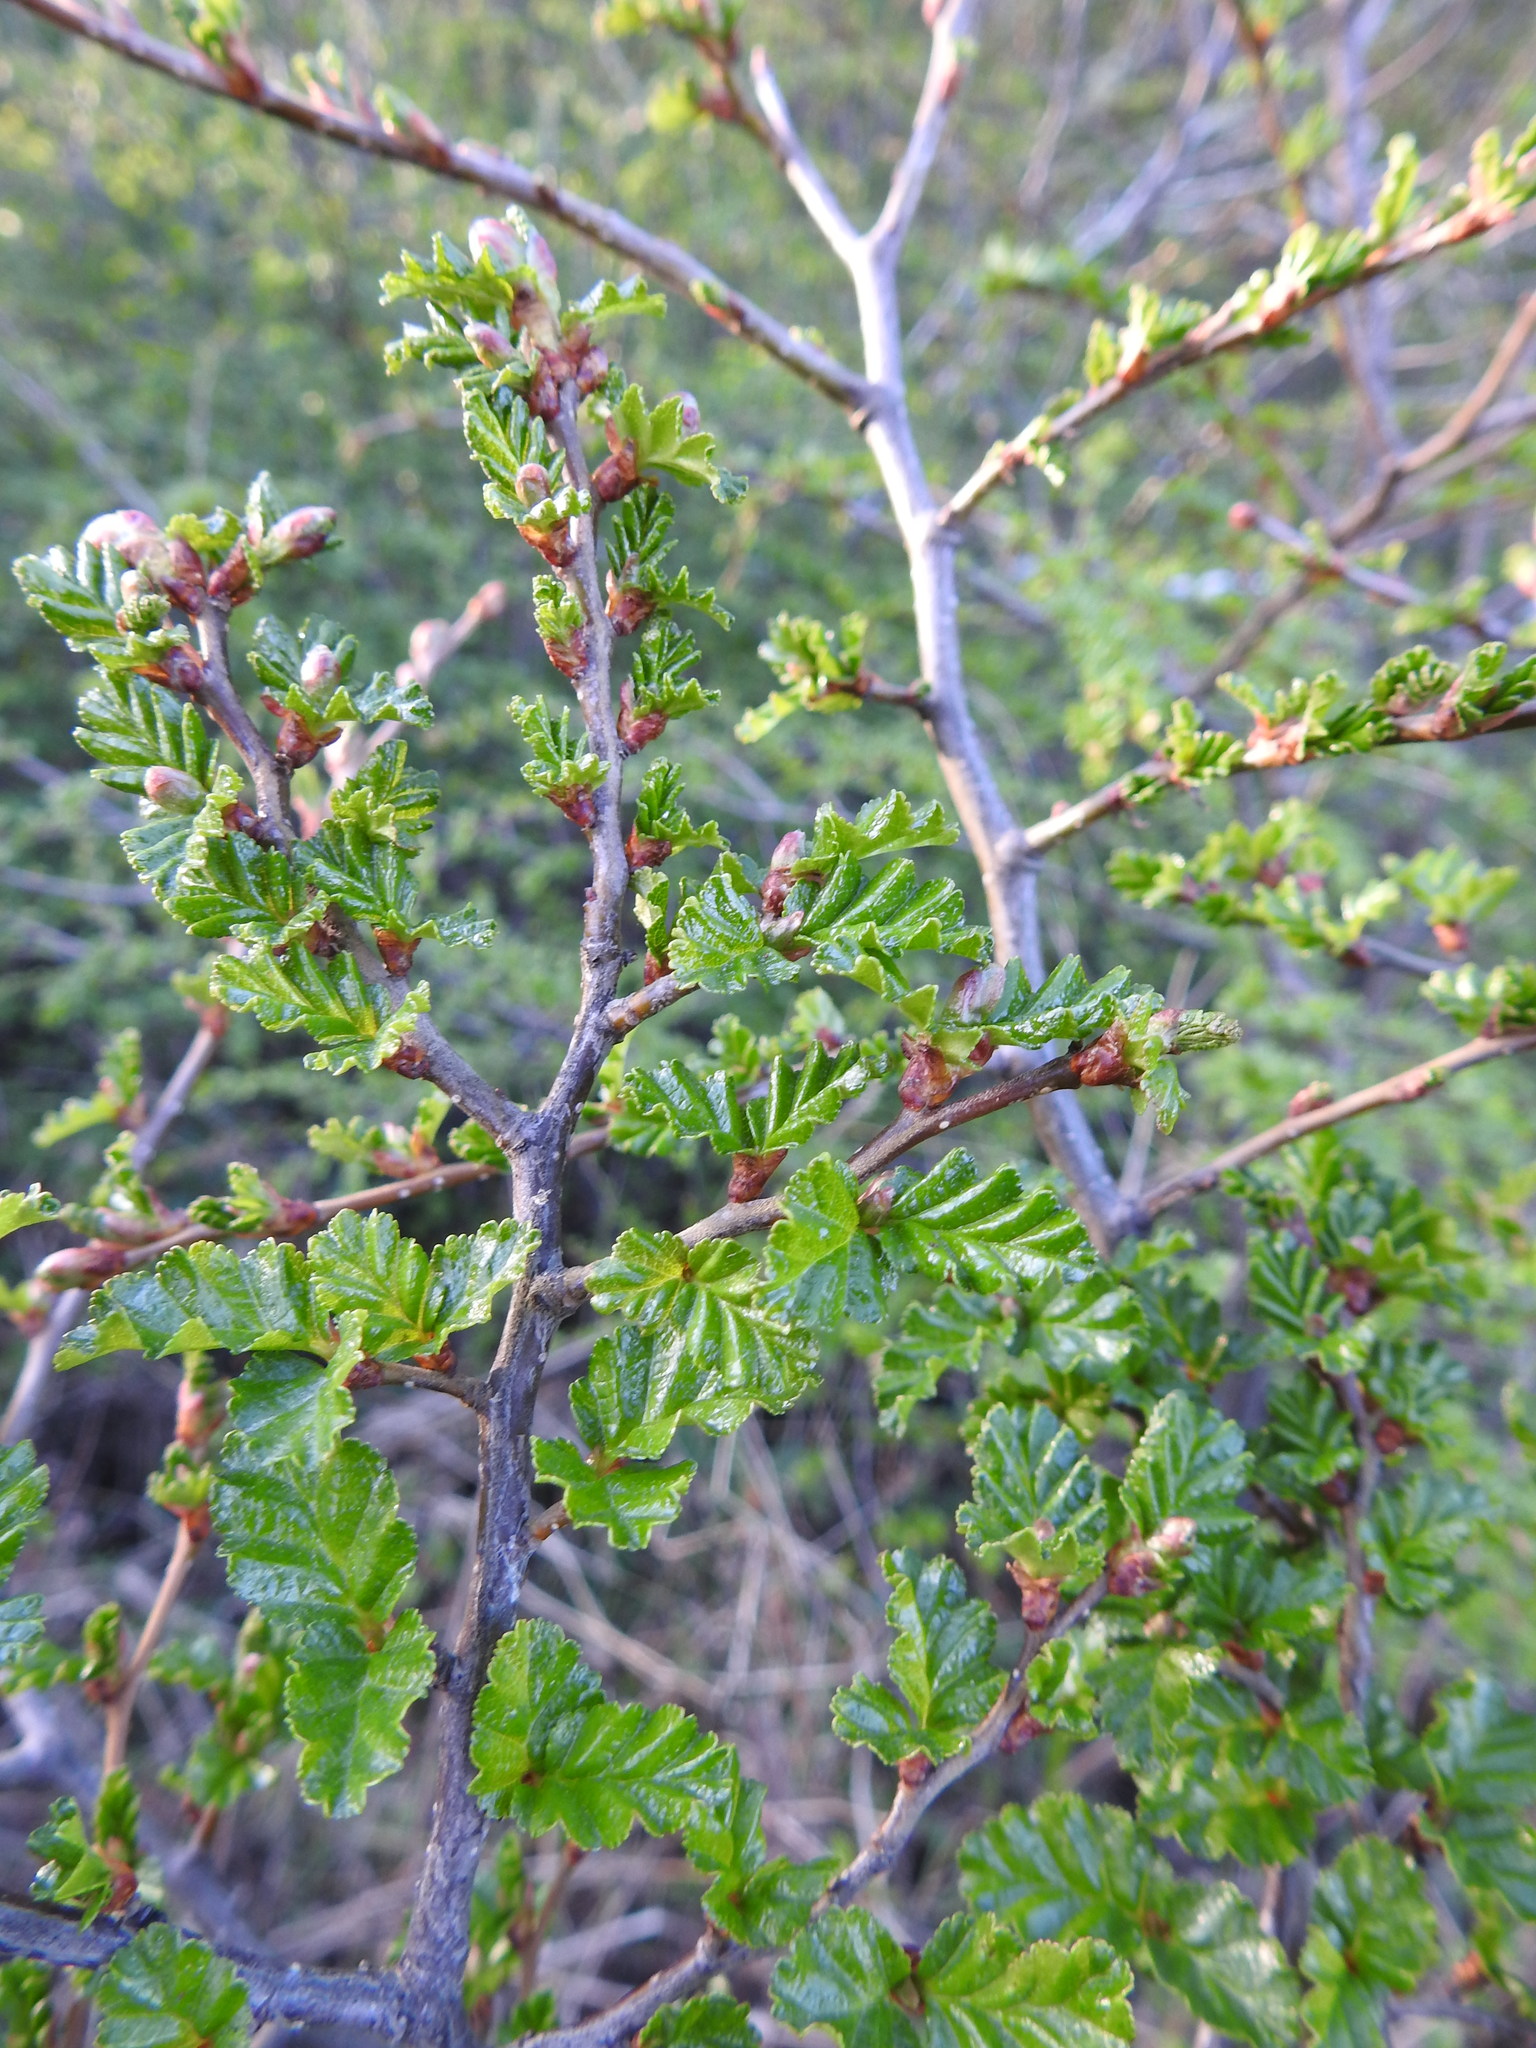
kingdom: Plantae
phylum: Tracheophyta
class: Magnoliopsida
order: Fagales
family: Nothofagaceae
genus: Nothofagus
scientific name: Nothofagus antarctica
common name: Antarctic beech
